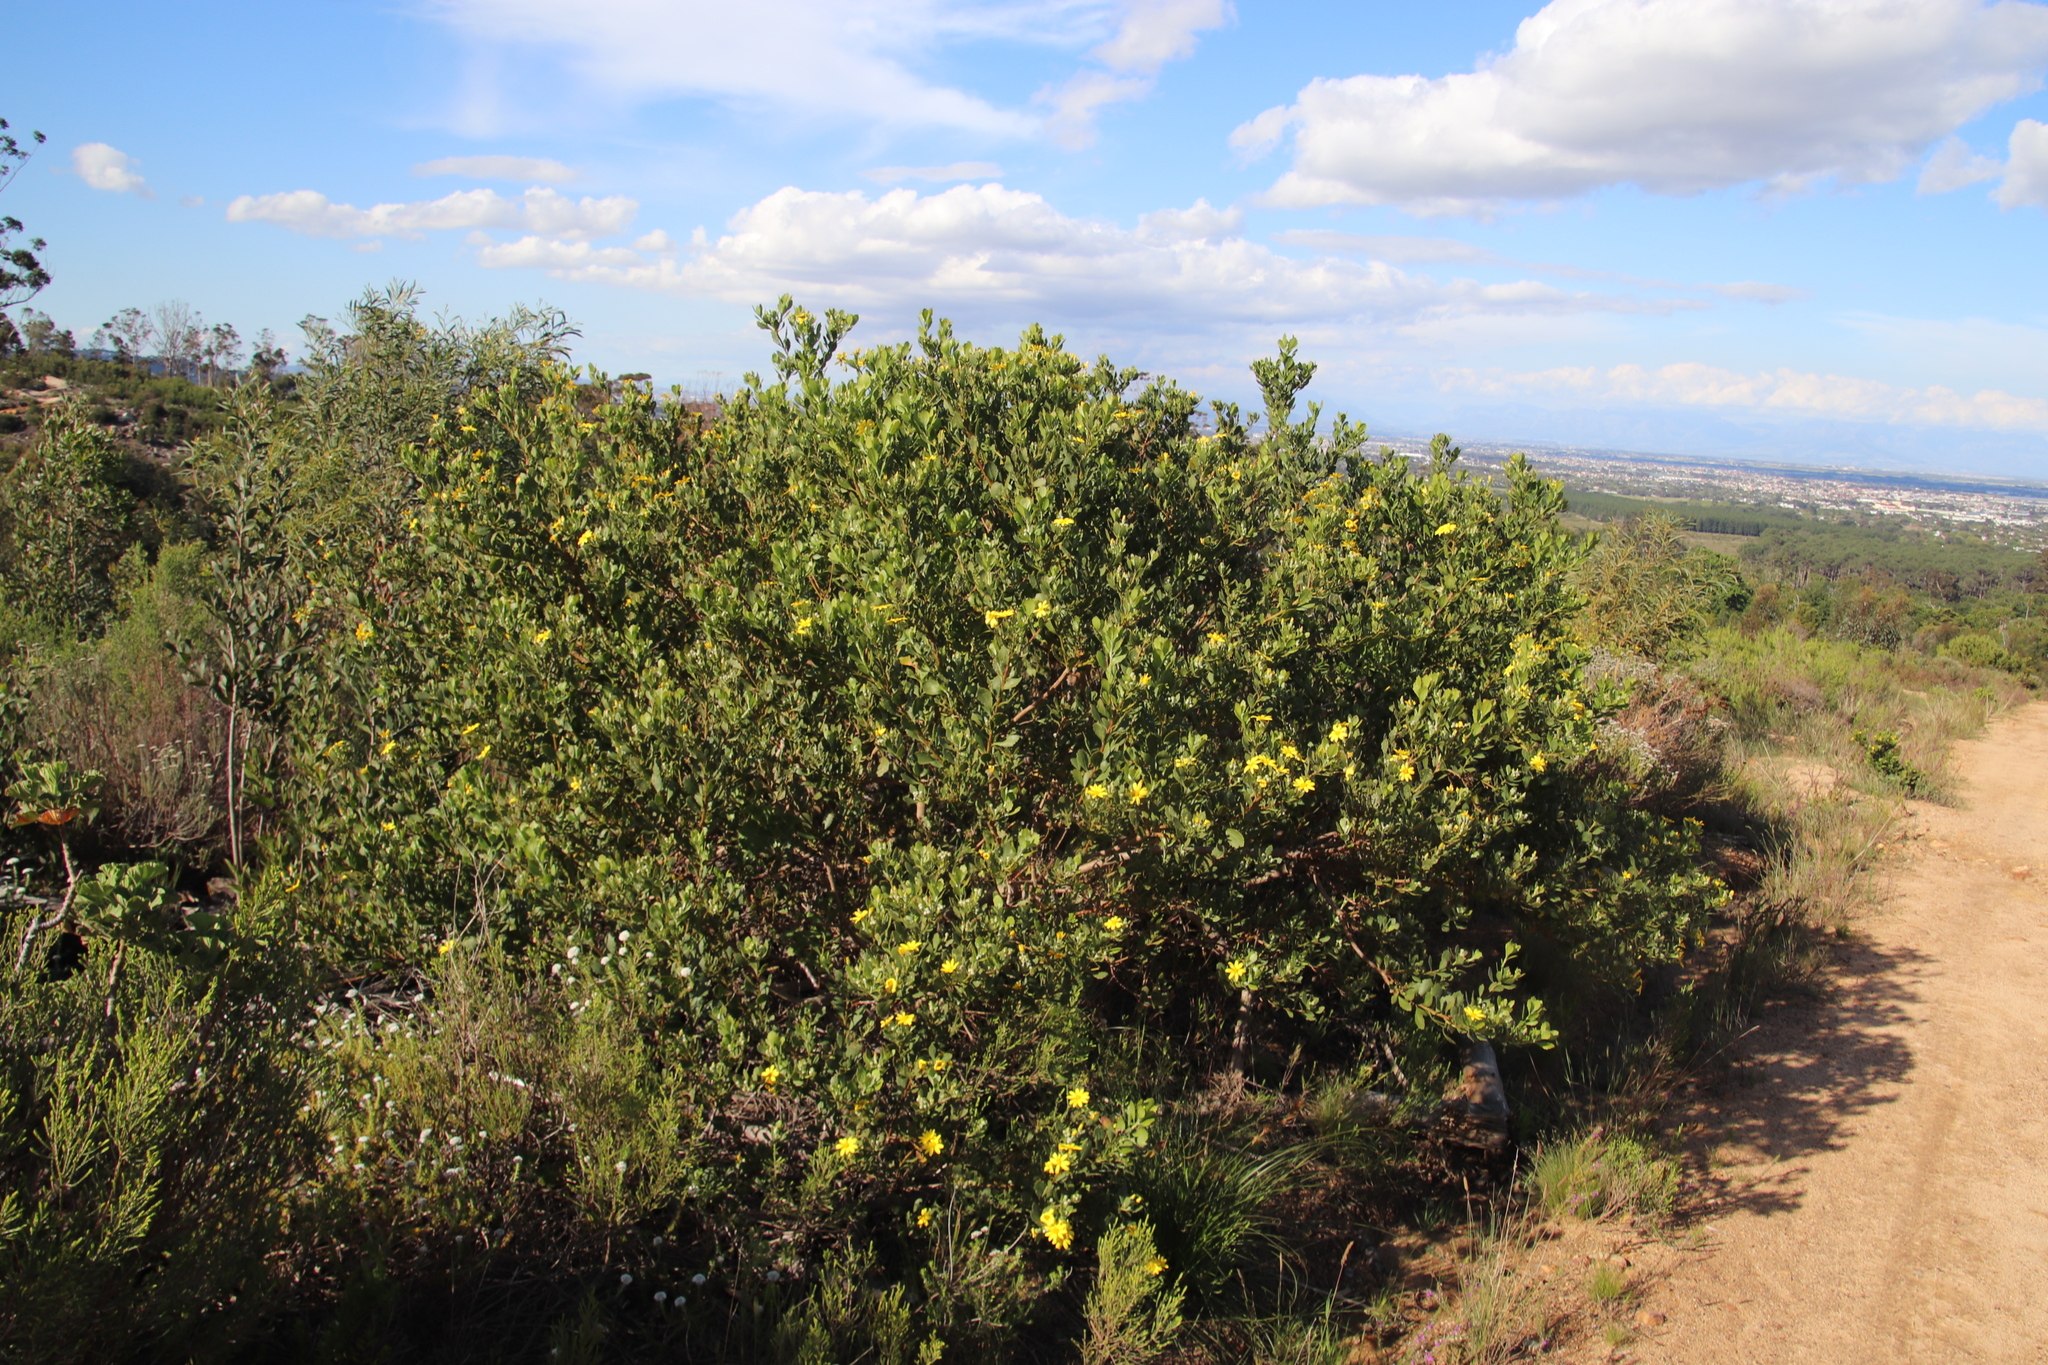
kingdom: Plantae
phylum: Tracheophyta
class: Magnoliopsida
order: Asterales
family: Asteraceae
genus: Osteospermum
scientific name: Osteospermum moniliferum
